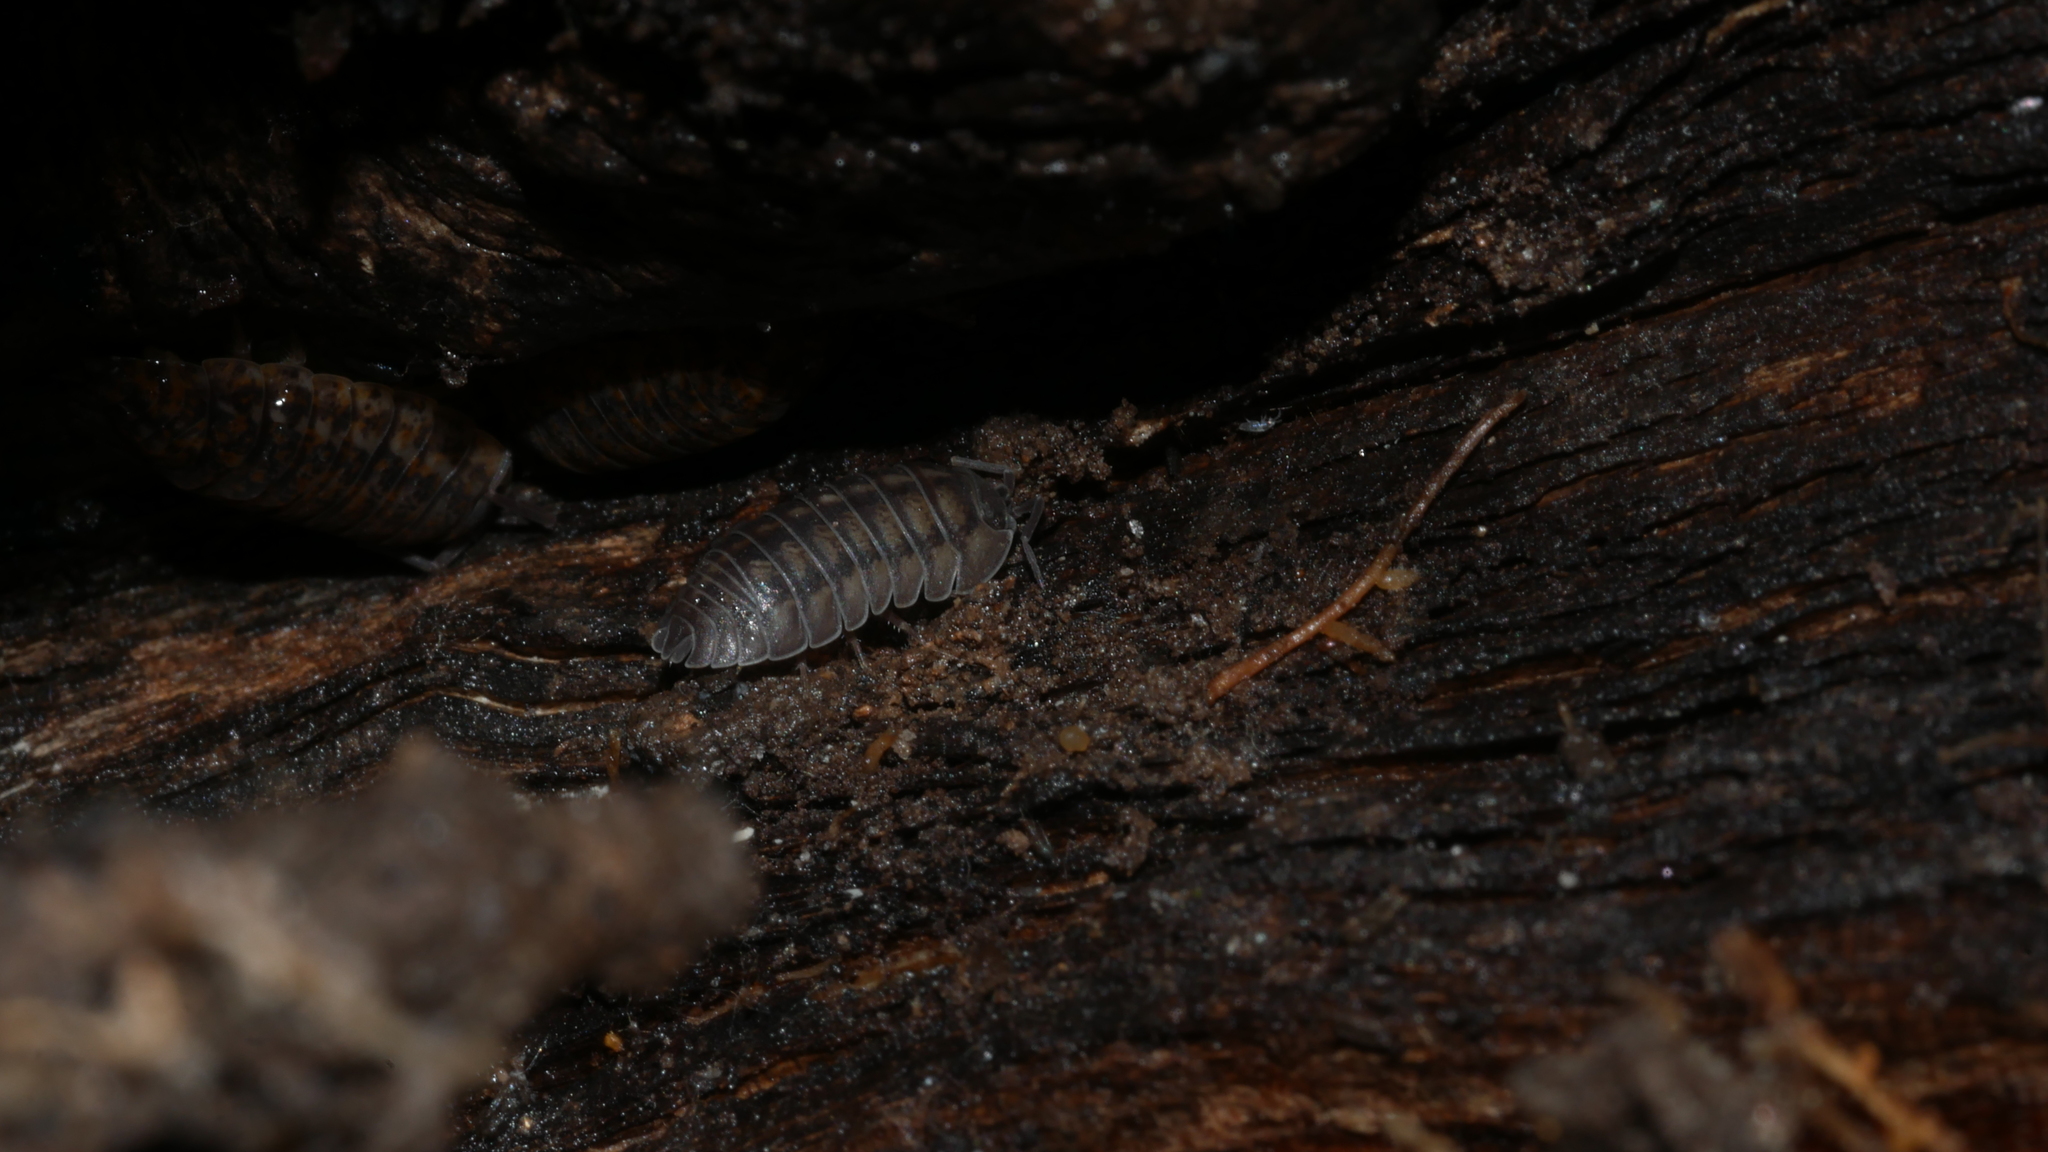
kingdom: Animalia
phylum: Arthropoda
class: Malacostraca
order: Isopoda
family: Armadillidiidae
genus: Armadillidium
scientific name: Armadillidium nasatum
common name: Isopod
